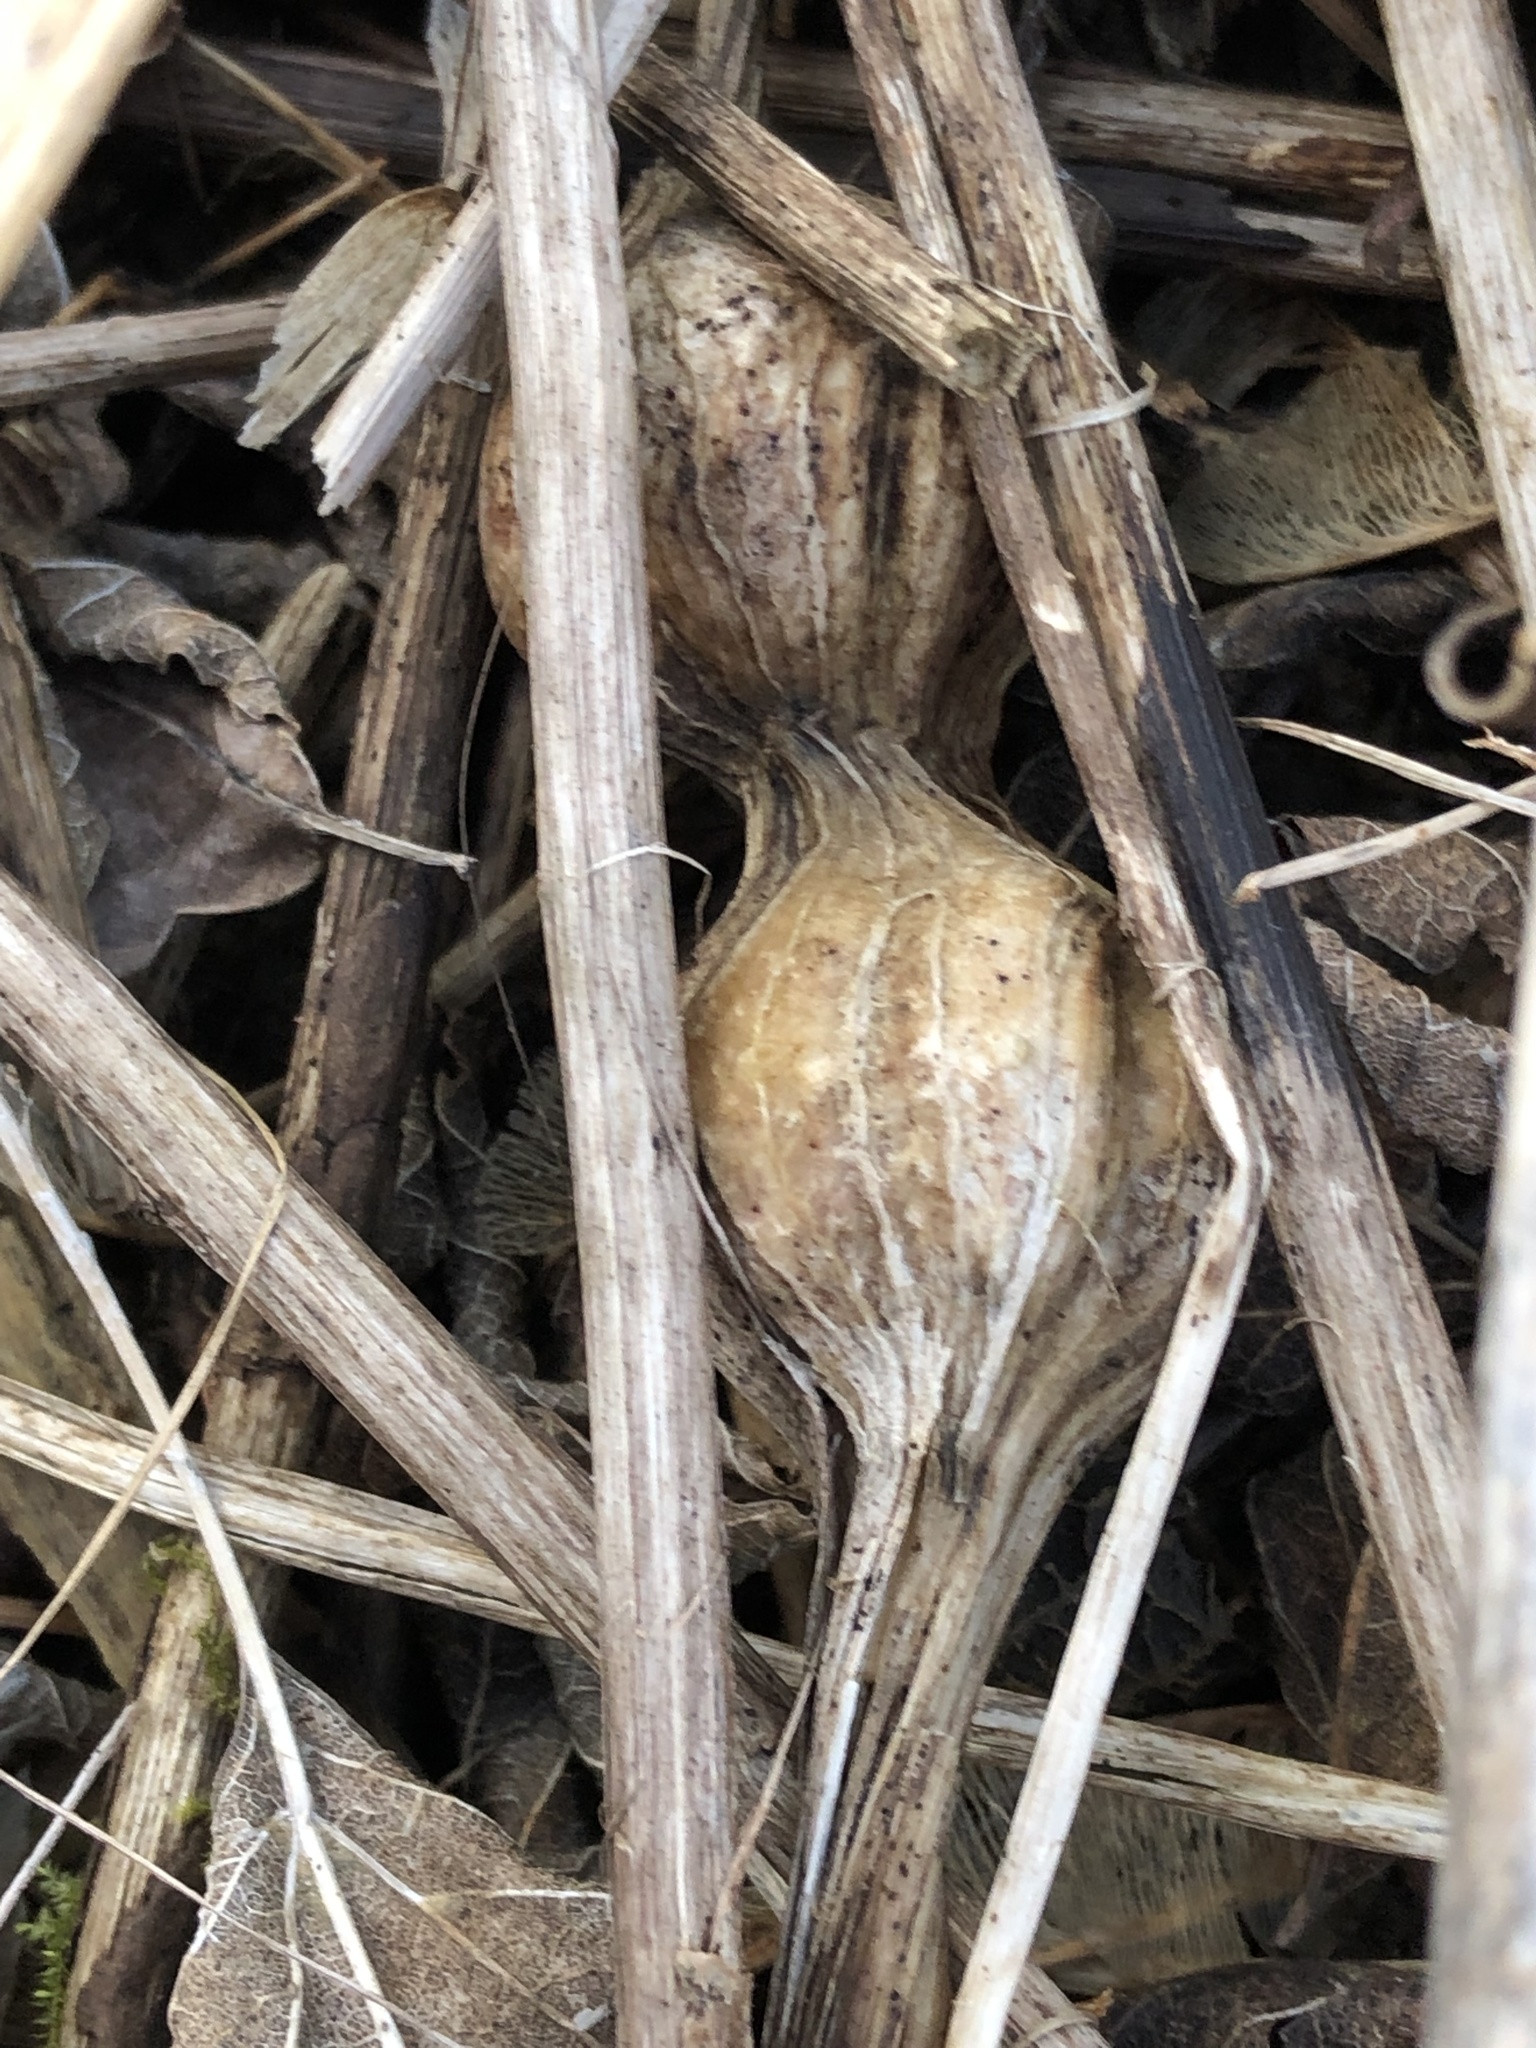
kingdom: Animalia
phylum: Arthropoda
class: Insecta
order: Diptera
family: Tephritidae
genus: Eurosta
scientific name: Eurosta solidaginis
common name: Goldenrod gall fly
